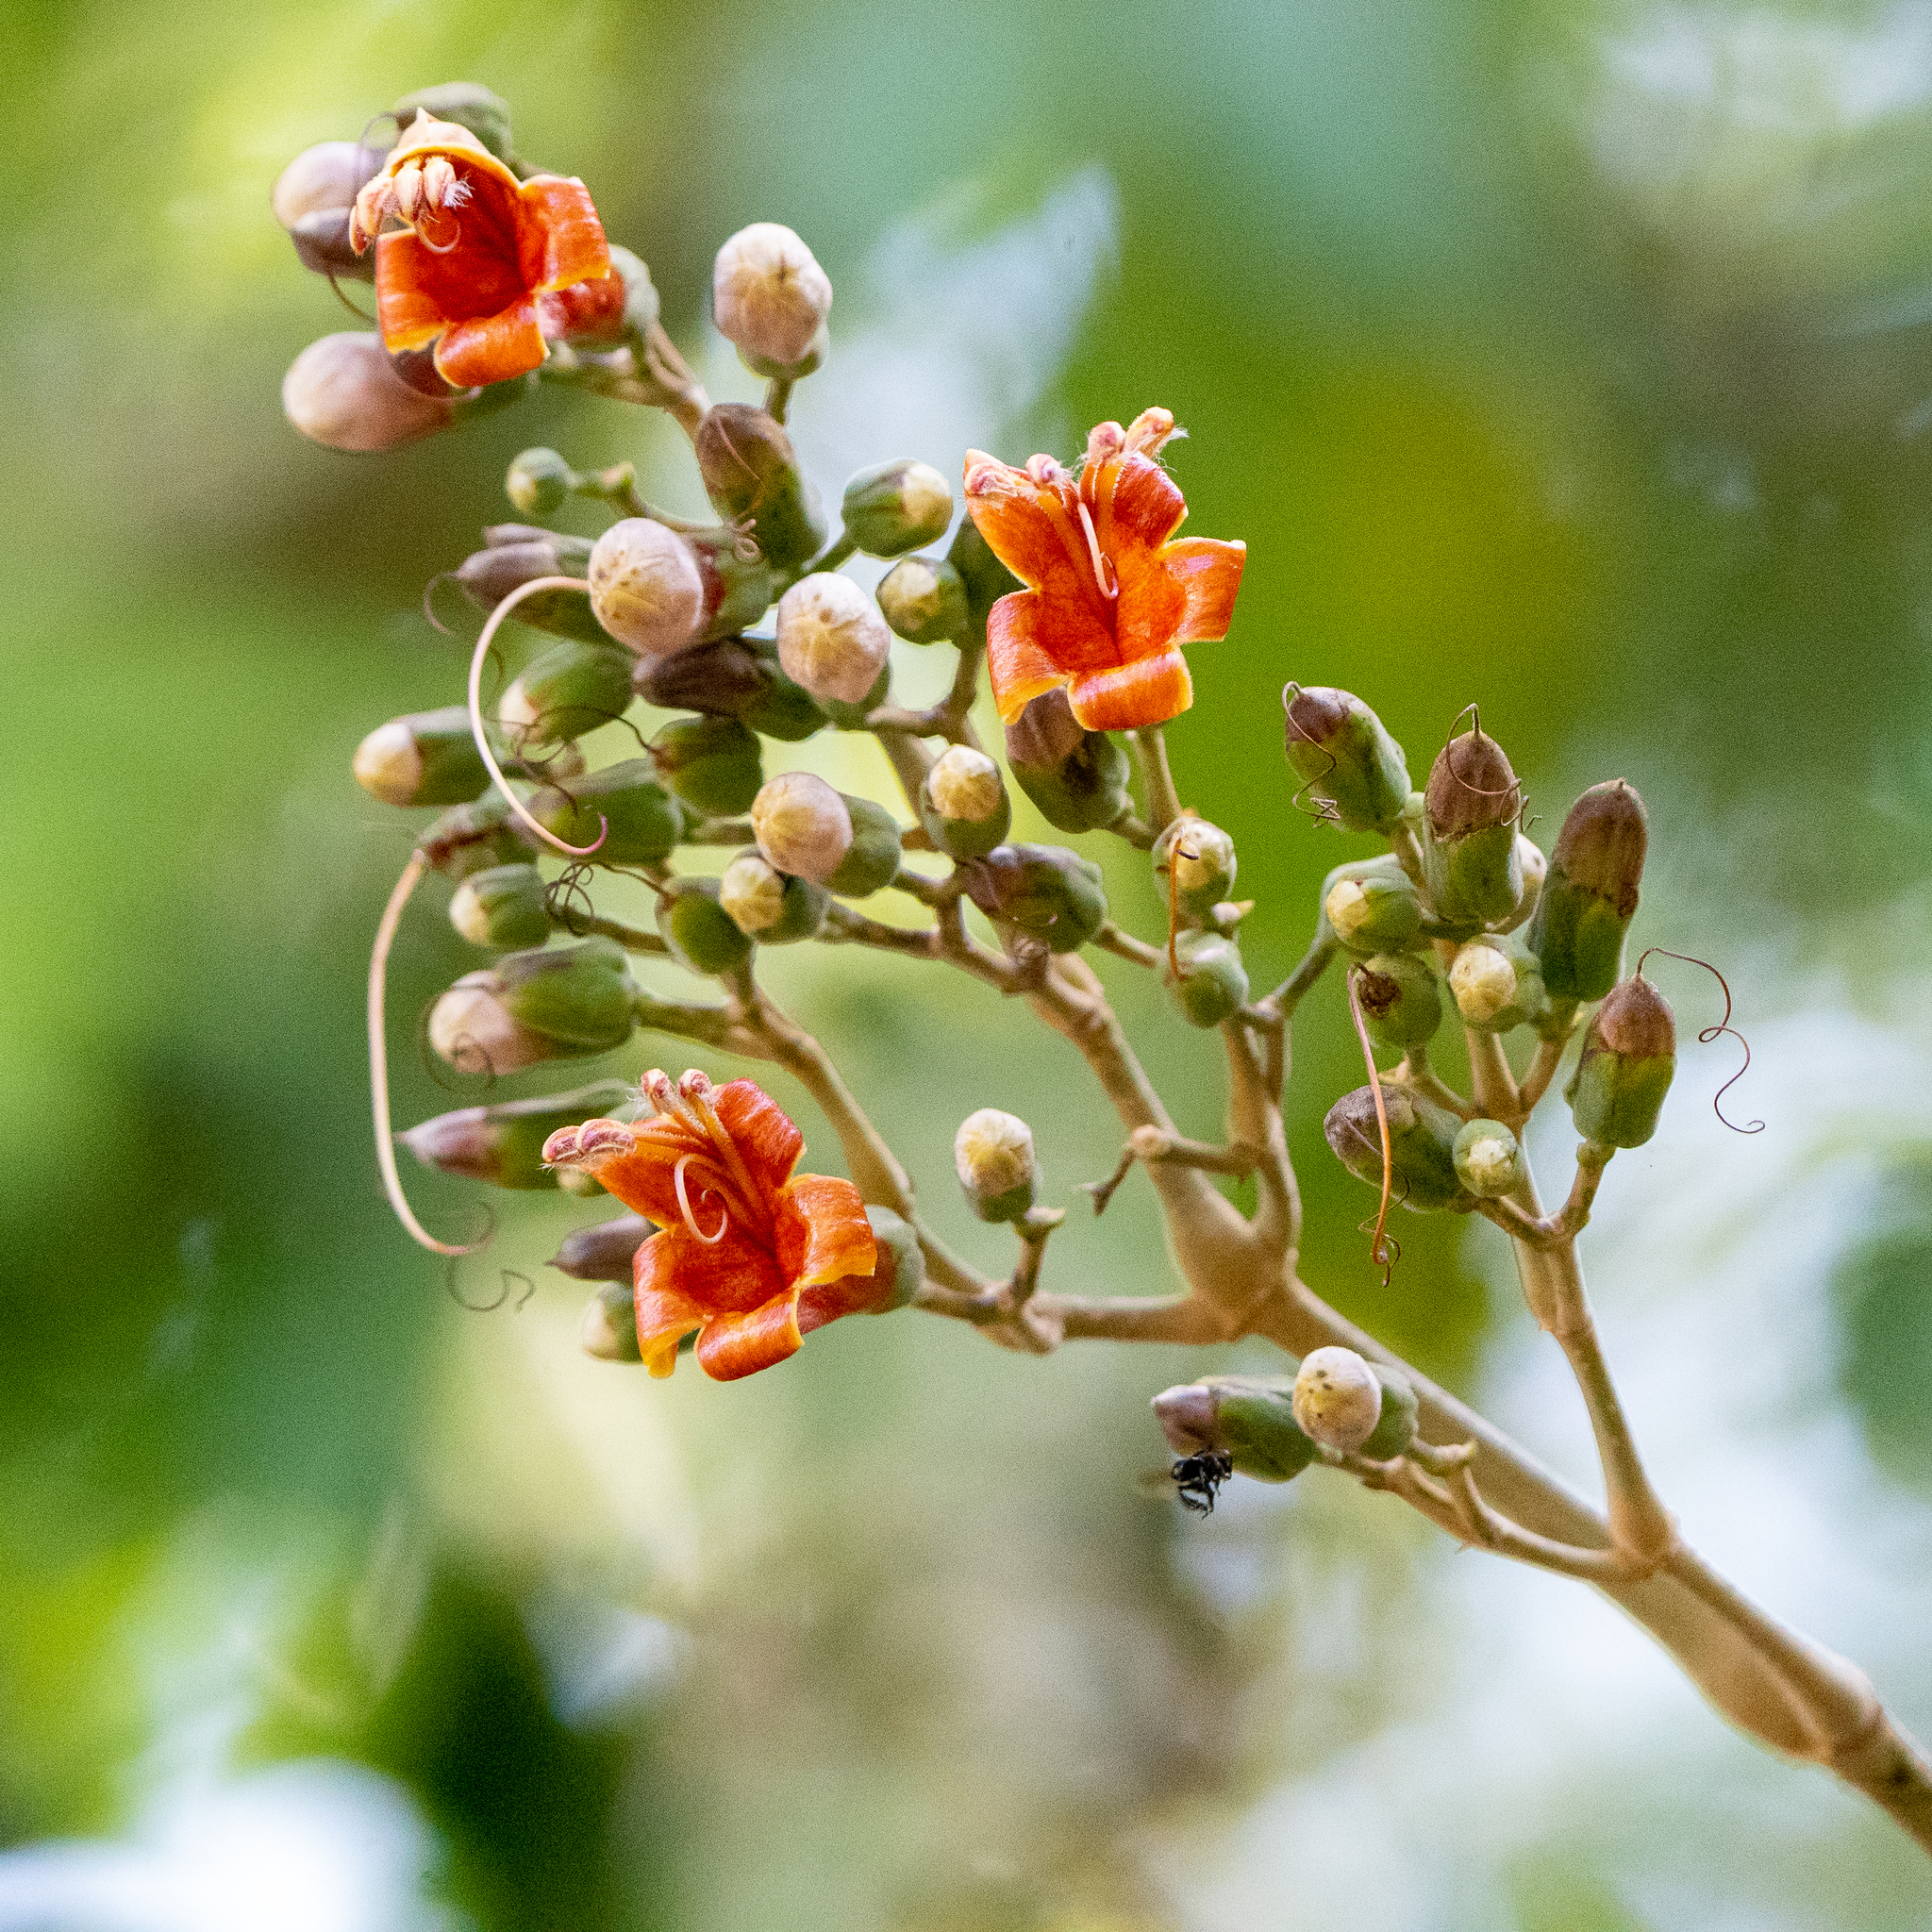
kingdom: Plantae
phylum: Tracheophyta
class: Magnoliopsida
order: Lamiales
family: Acanthaceae
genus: Trichanthera
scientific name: Trichanthera gigantea
